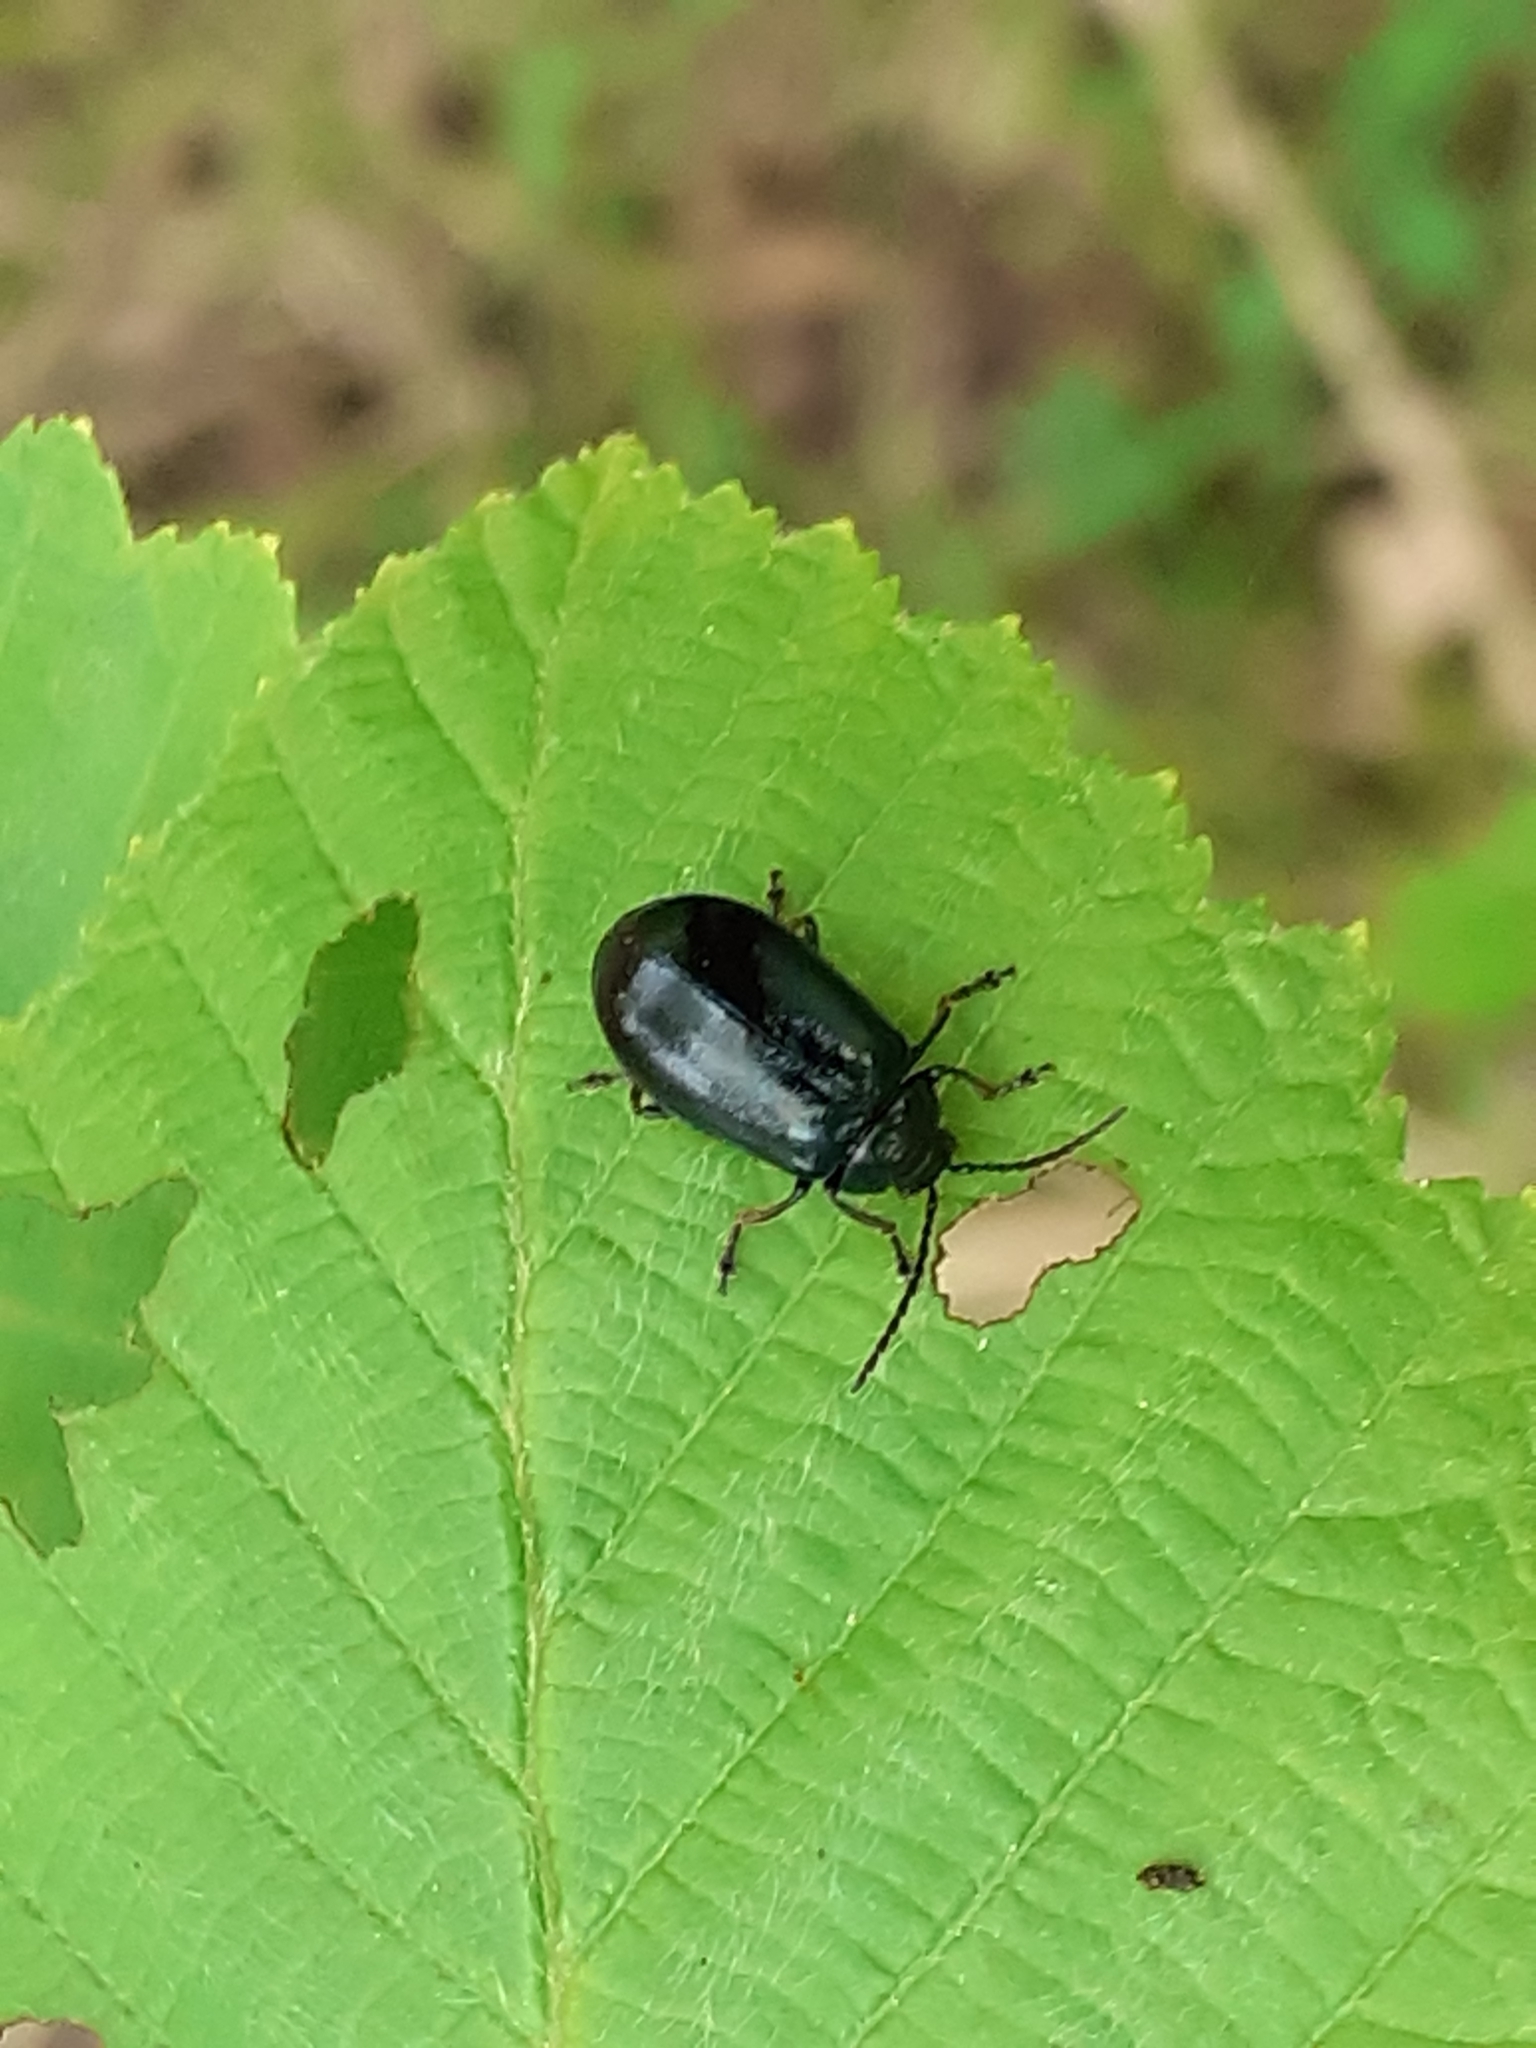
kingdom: Animalia
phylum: Arthropoda
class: Insecta
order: Coleoptera
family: Chrysomelidae
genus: Agelastica
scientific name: Agelastica alni
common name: Alder leaf beetle
